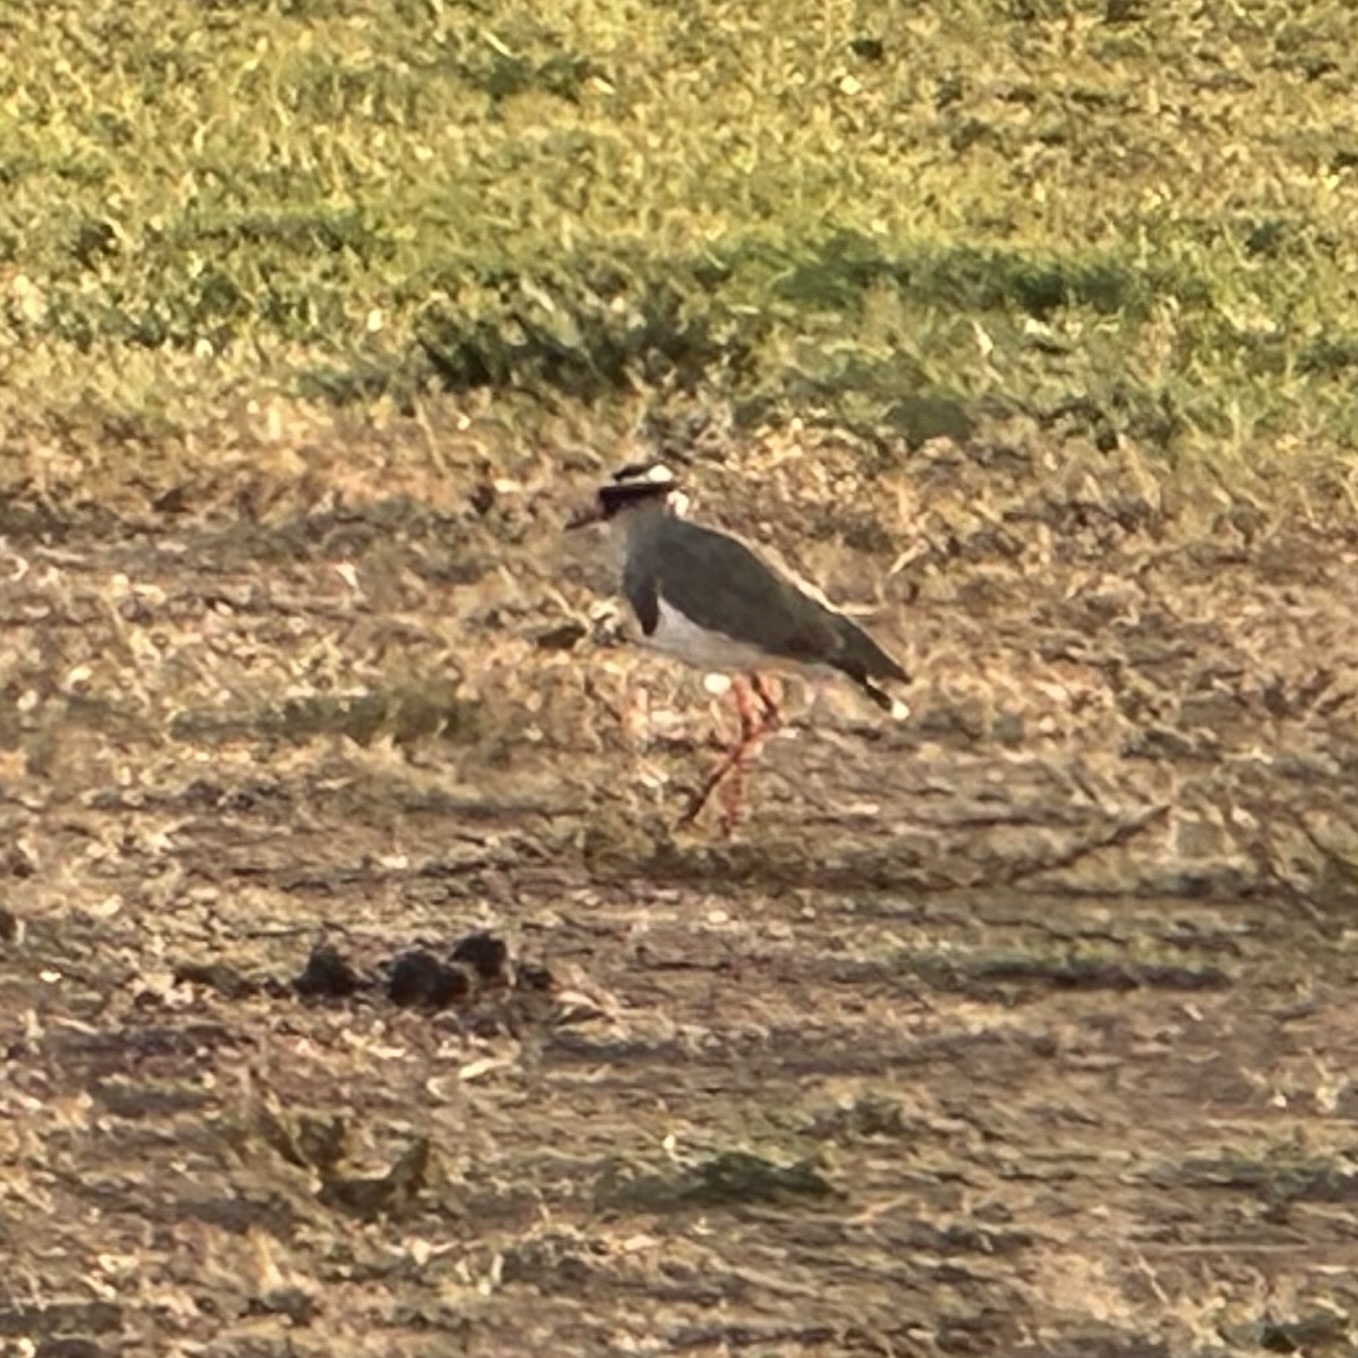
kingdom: Animalia
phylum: Chordata
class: Aves
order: Charadriiformes
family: Charadriidae
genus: Vanellus
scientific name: Vanellus coronatus
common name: Crowned lapwing
